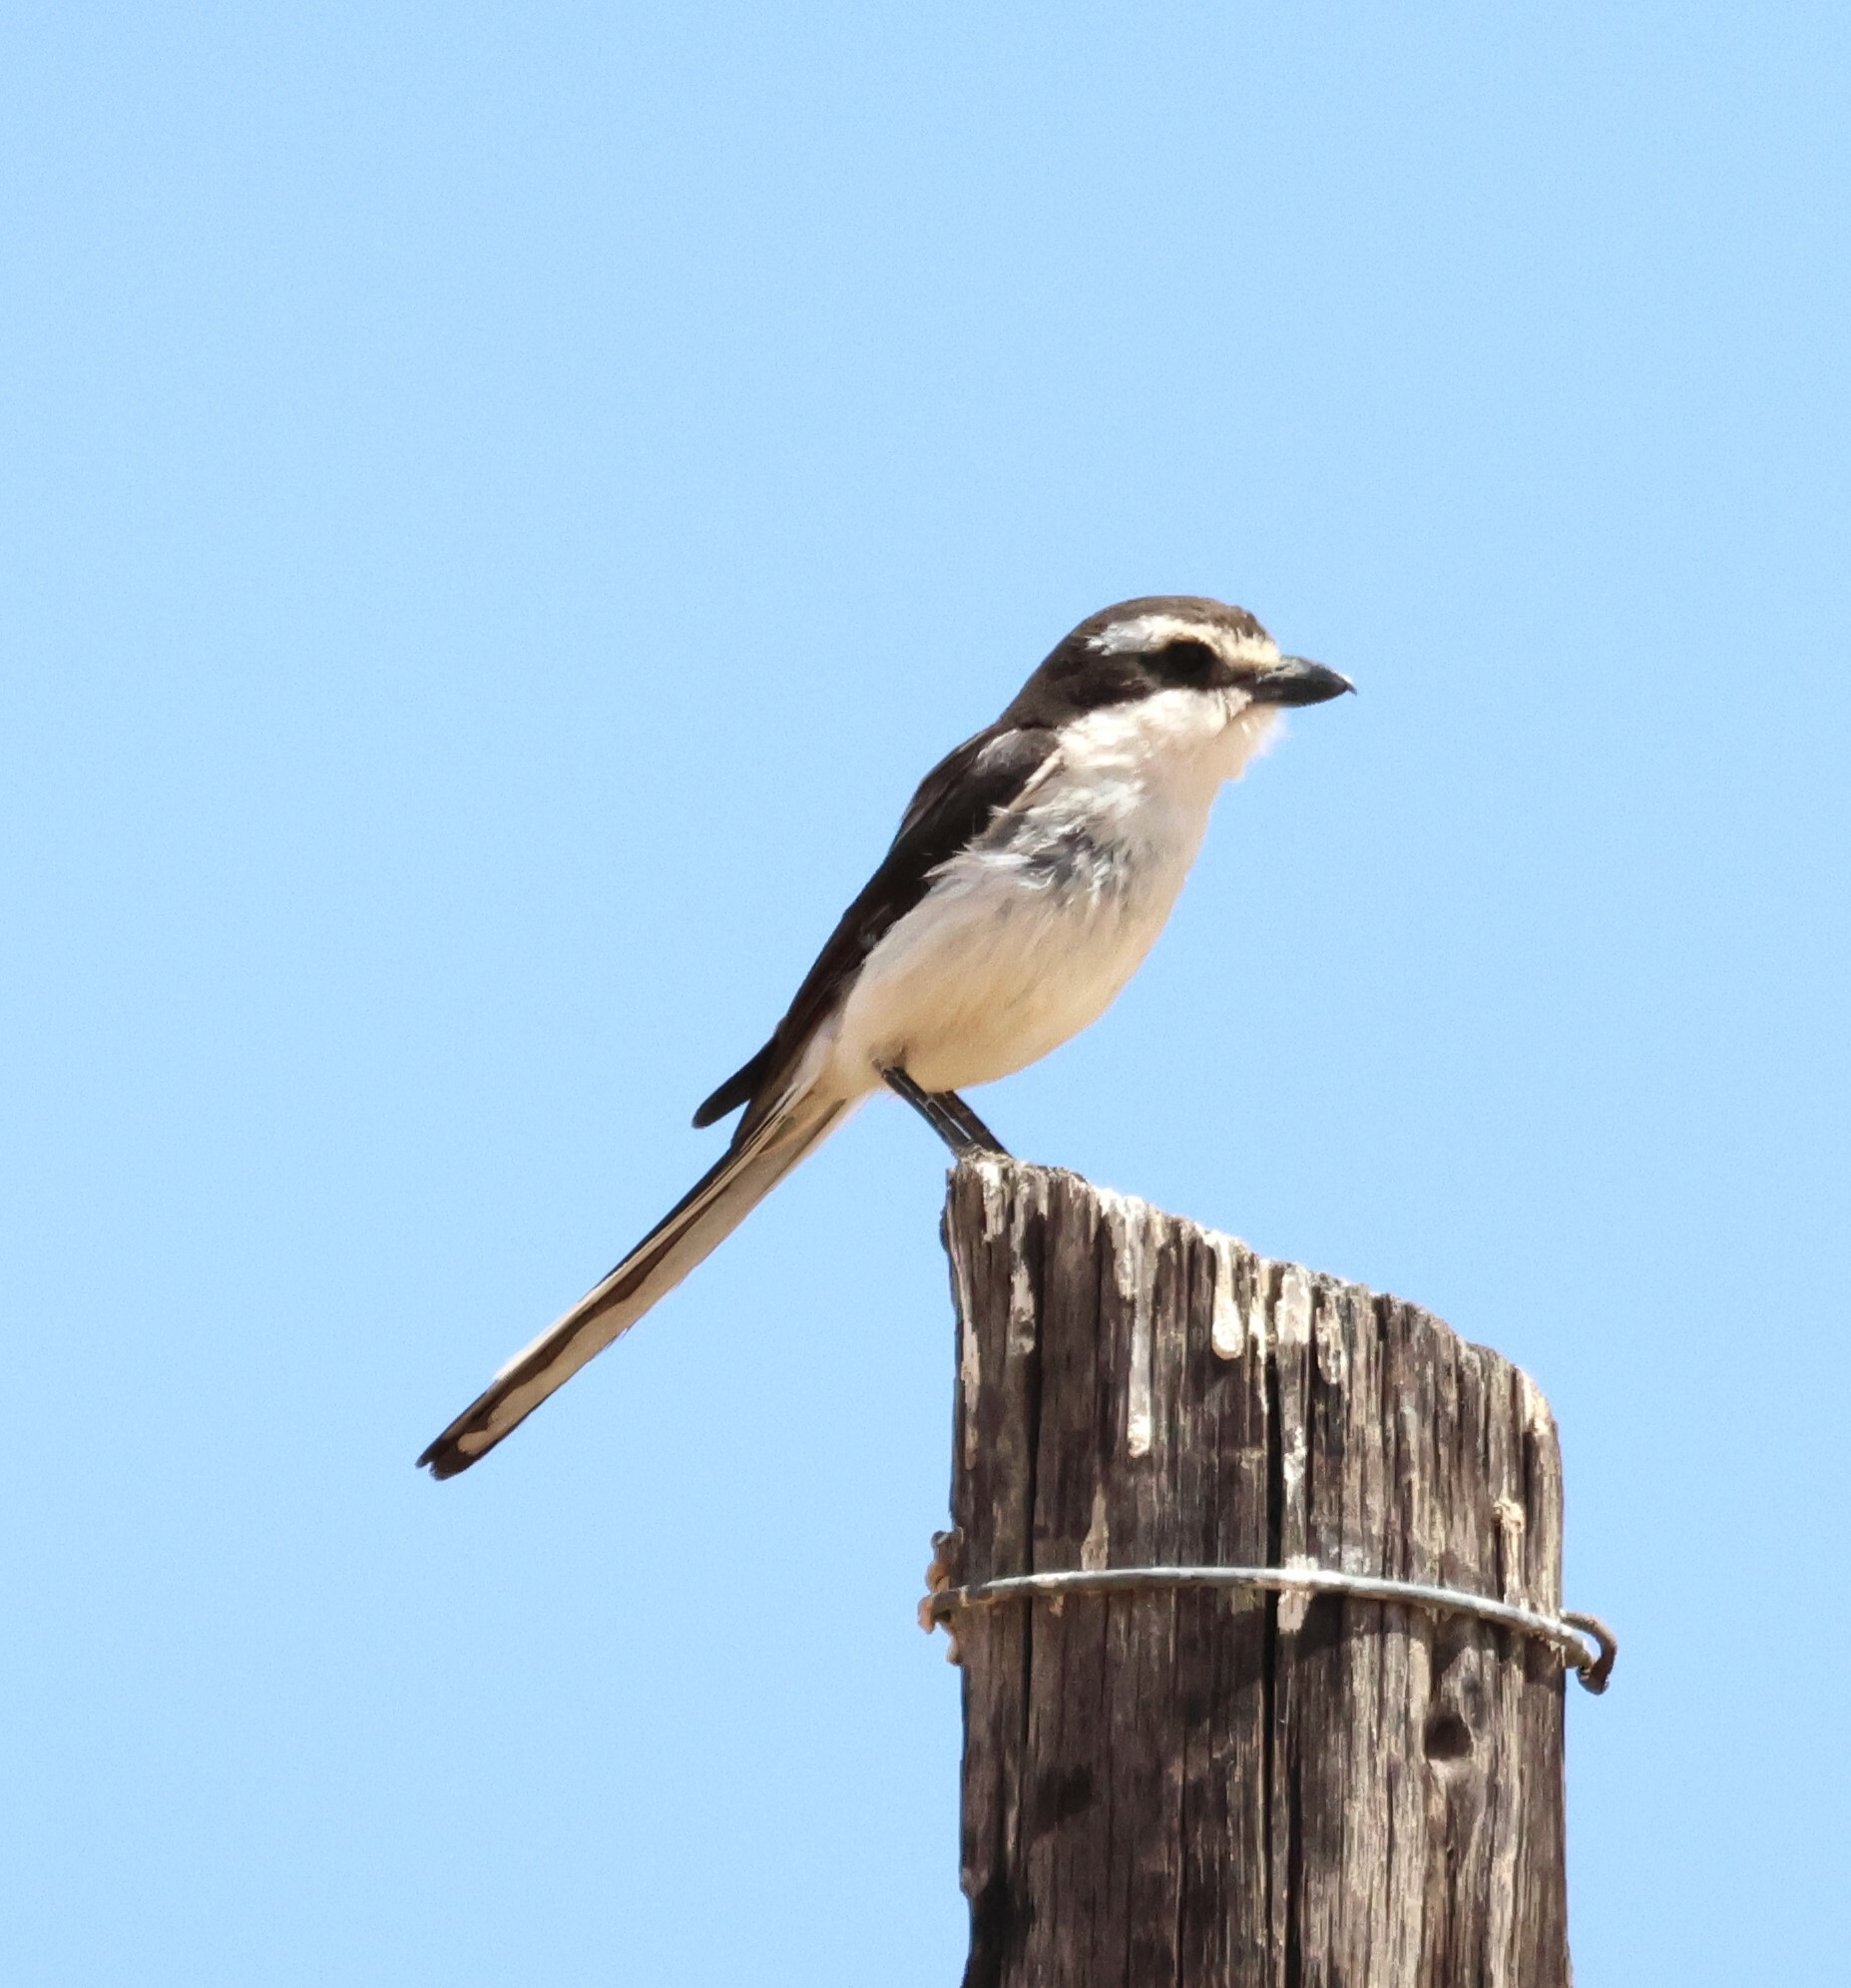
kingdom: Animalia
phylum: Chordata
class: Aves
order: Passeriformes
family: Laniidae
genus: Lanius
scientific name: Lanius collaris
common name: Southern fiscal
